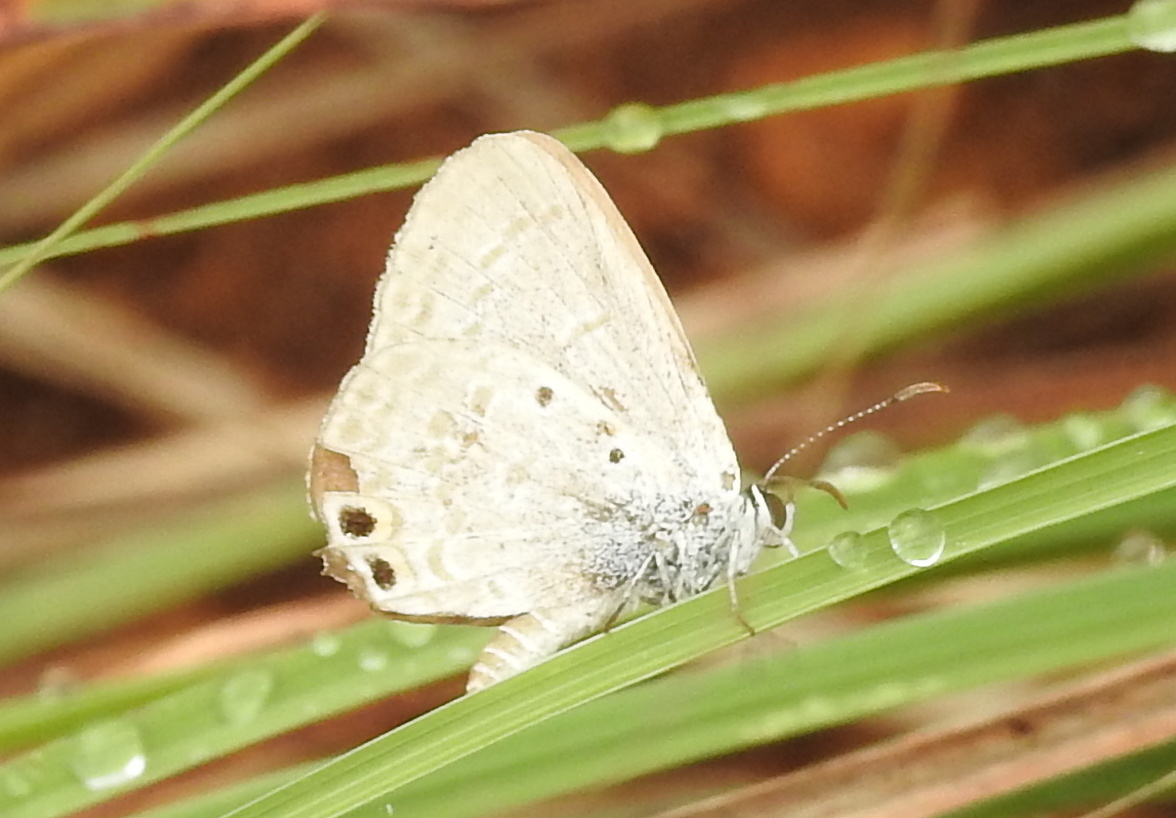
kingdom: Animalia
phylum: Arthropoda
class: Insecta
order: Lepidoptera
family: Lycaenidae
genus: Euchrysops
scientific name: Euchrysops cnejus
